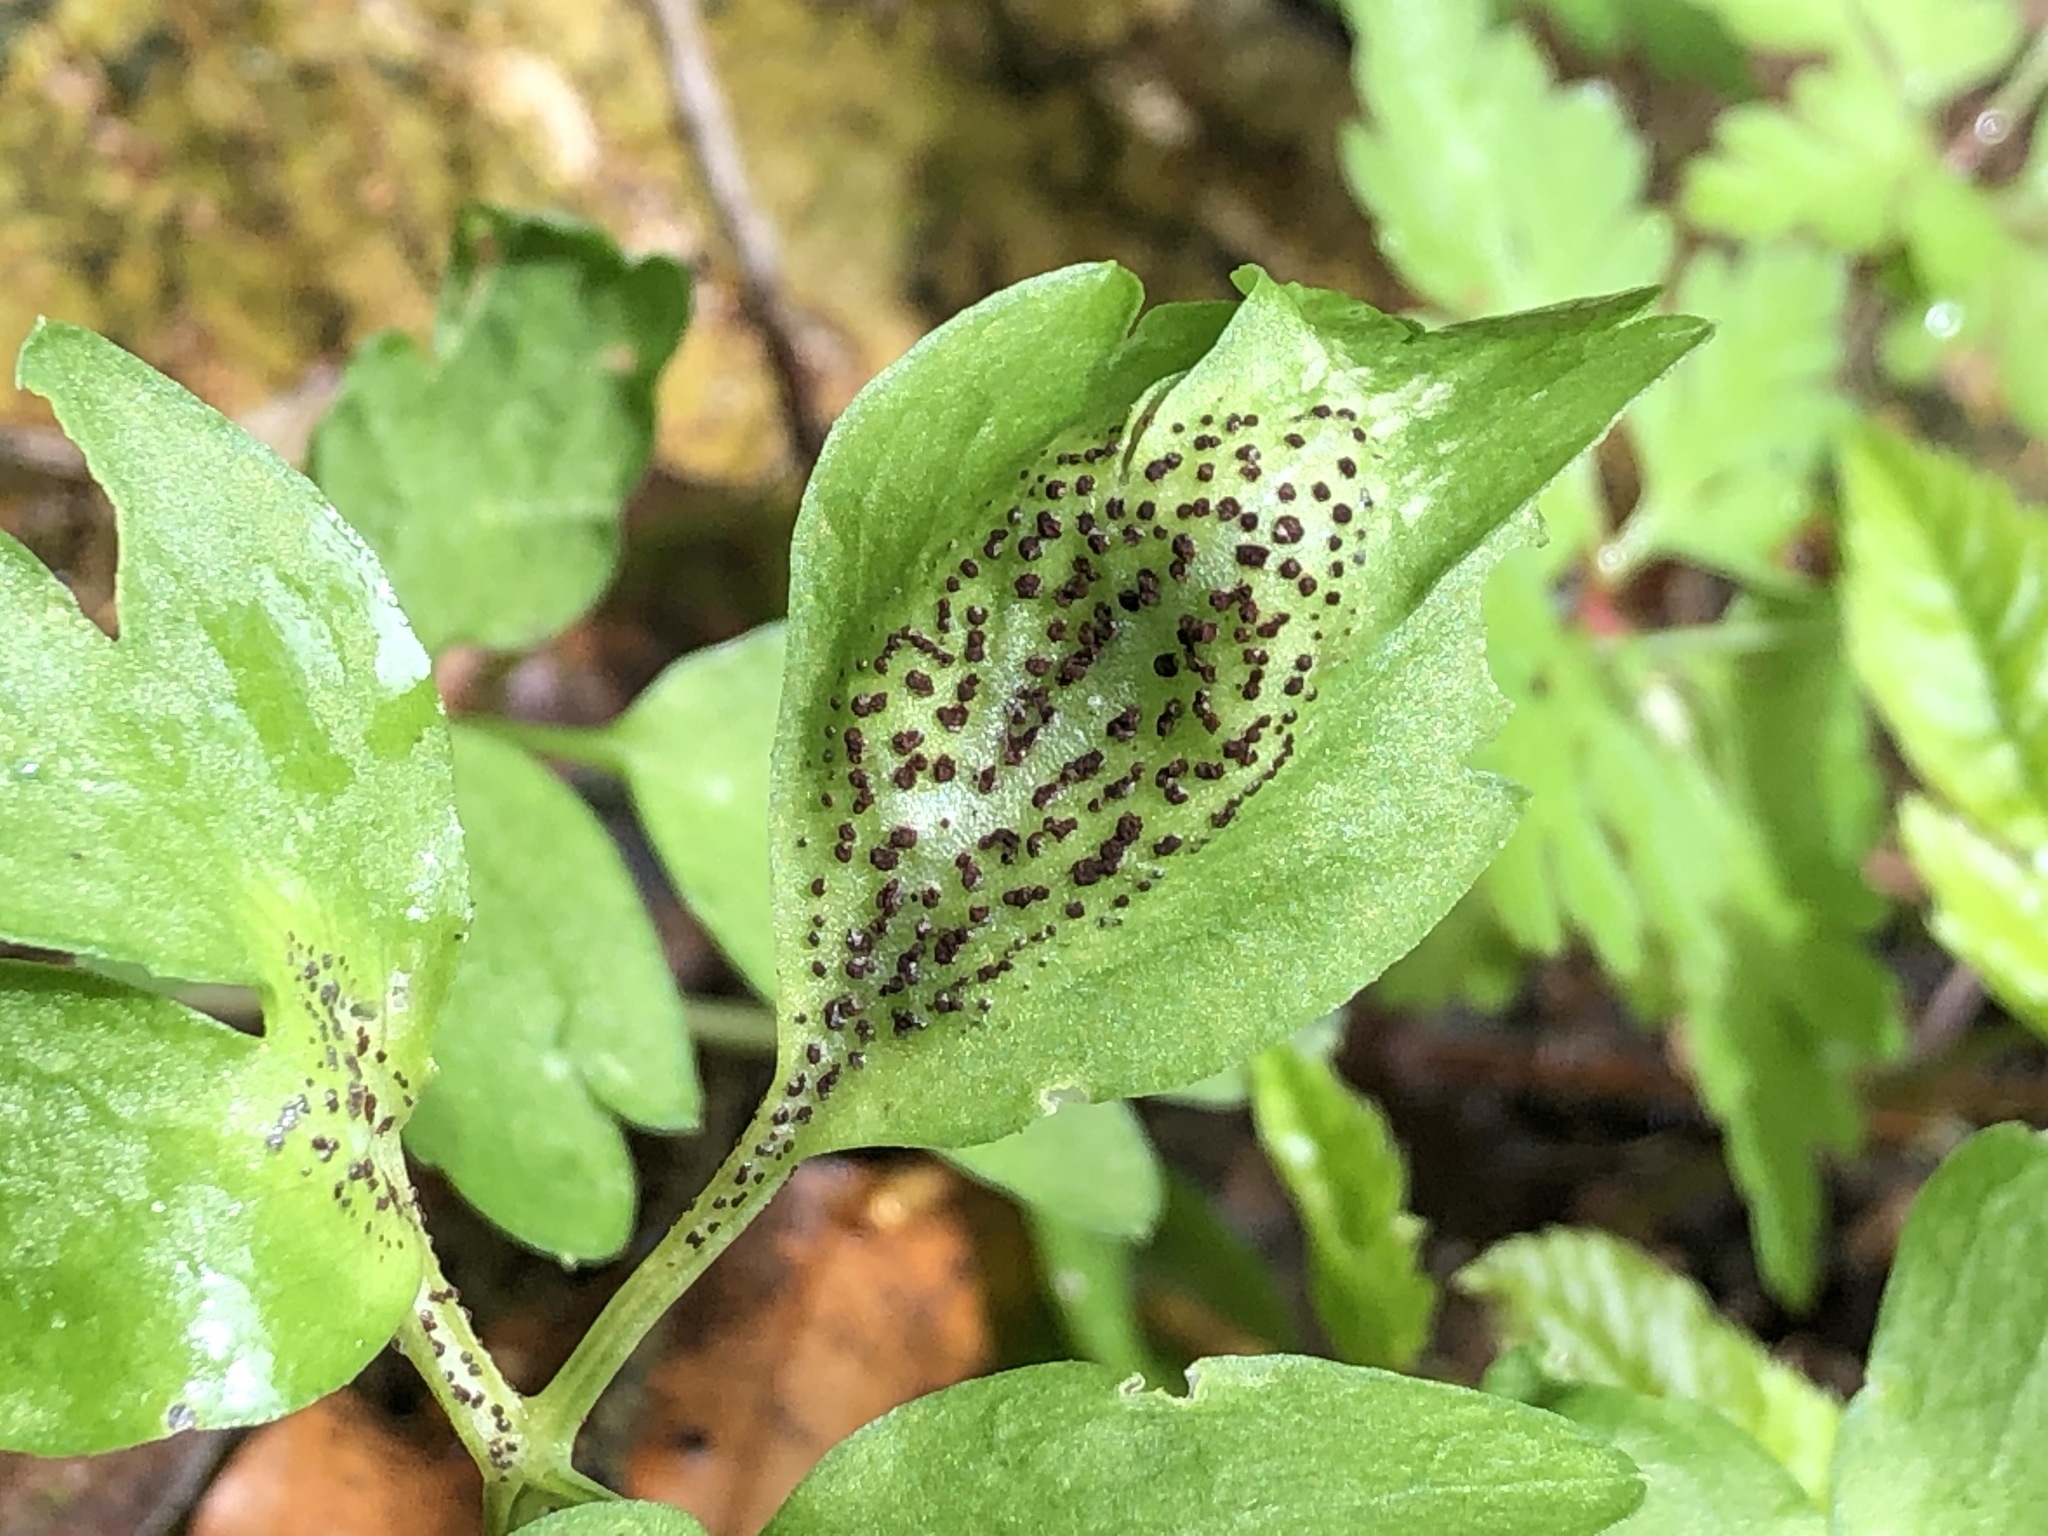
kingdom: Fungi
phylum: Basidiomycota
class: Pucciniomycetes
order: Pucciniales
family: Pucciniaceae
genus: Puccinia
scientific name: Puccinia adoxae
